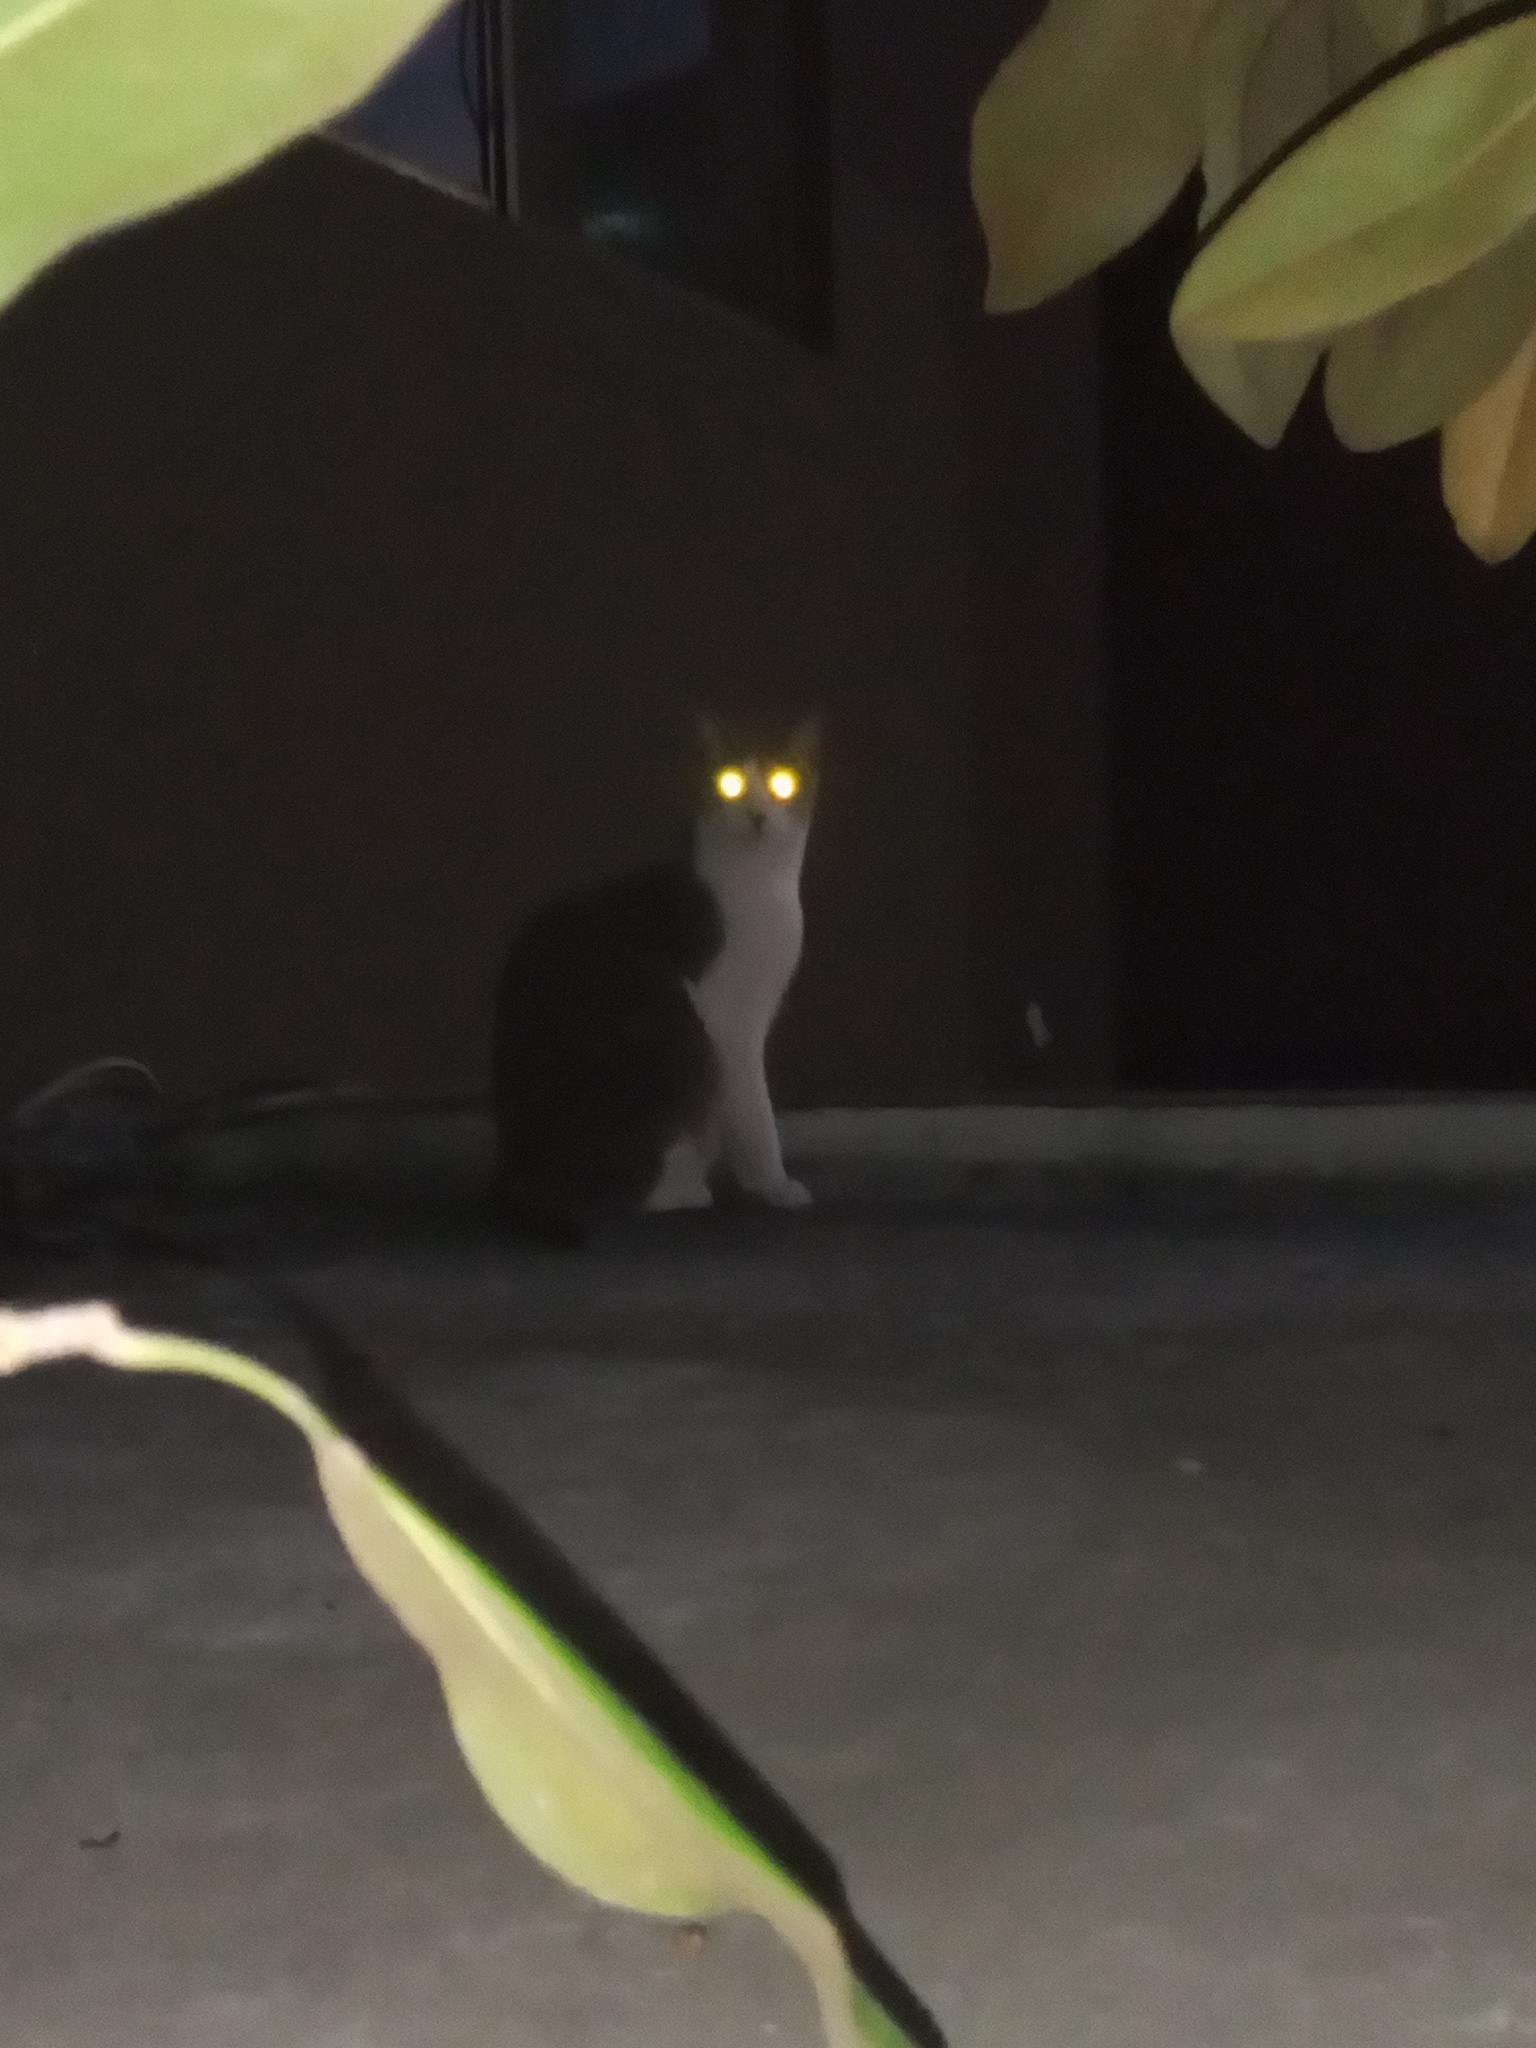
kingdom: Animalia
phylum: Chordata
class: Mammalia
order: Carnivora
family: Felidae
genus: Felis
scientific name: Felis catus
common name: Domestic cat
